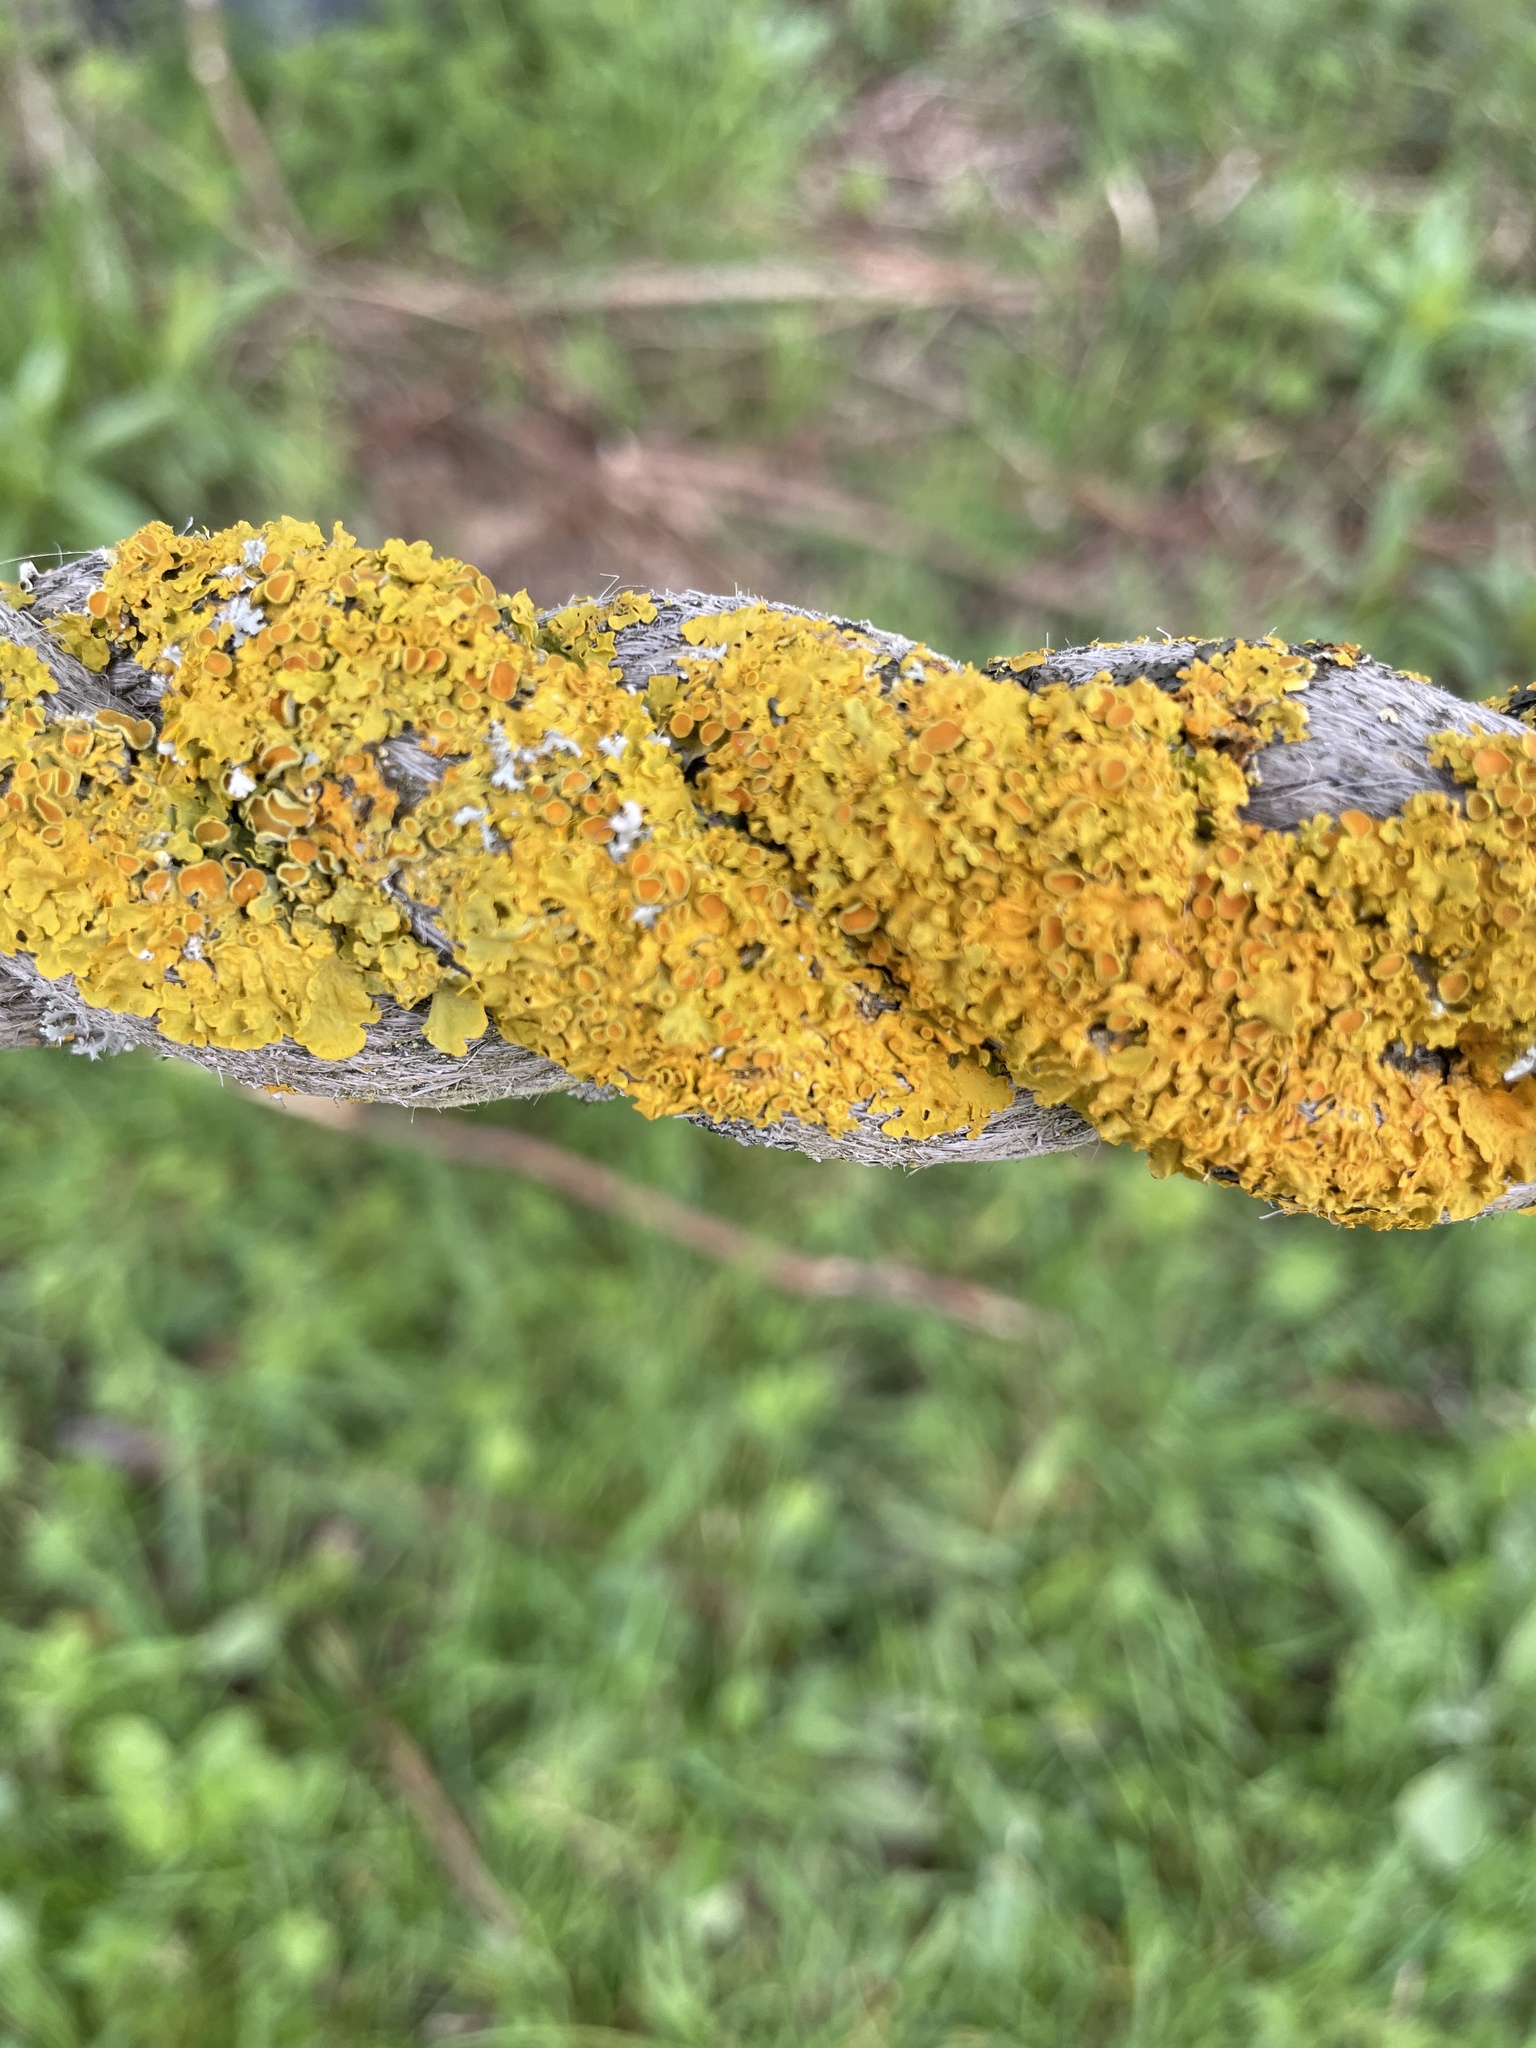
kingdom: Fungi
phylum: Ascomycota
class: Lecanoromycetes
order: Teloschistales
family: Teloschistaceae
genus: Xanthoria
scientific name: Xanthoria parietina
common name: Common orange lichen
